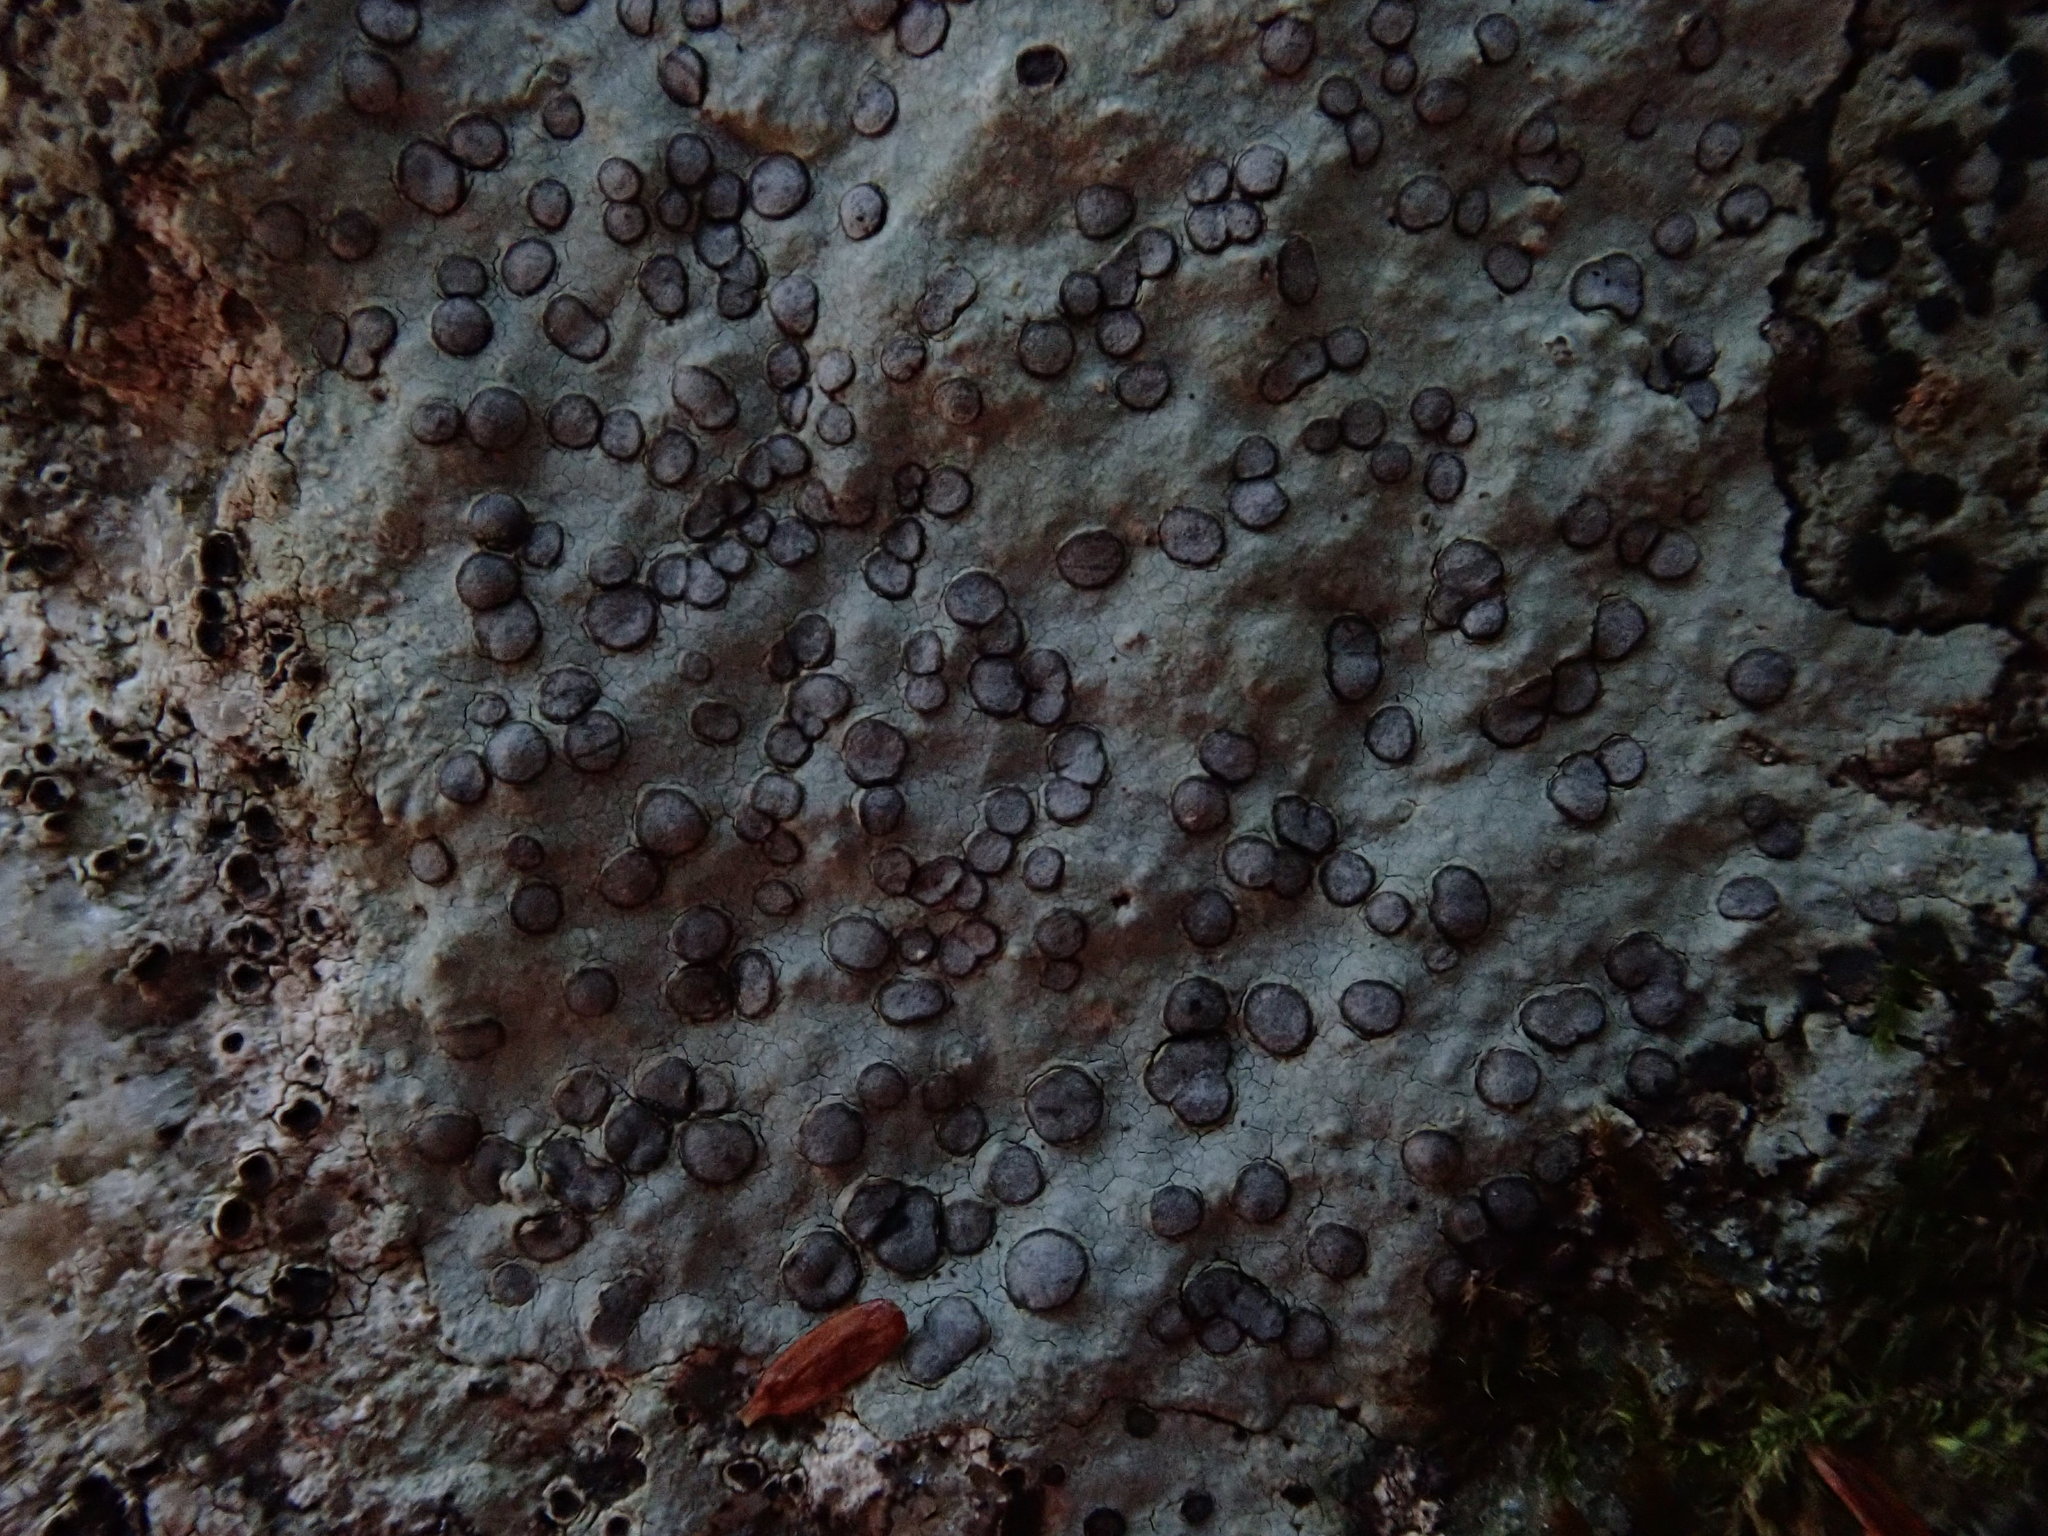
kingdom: Fungi
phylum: Ascomycota
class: Lecanoromycetes
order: Lecideales
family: Lecideaceae
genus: Porpidia
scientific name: Porpidia albocaerulescens
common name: Smokey-eyed boulder lichen
